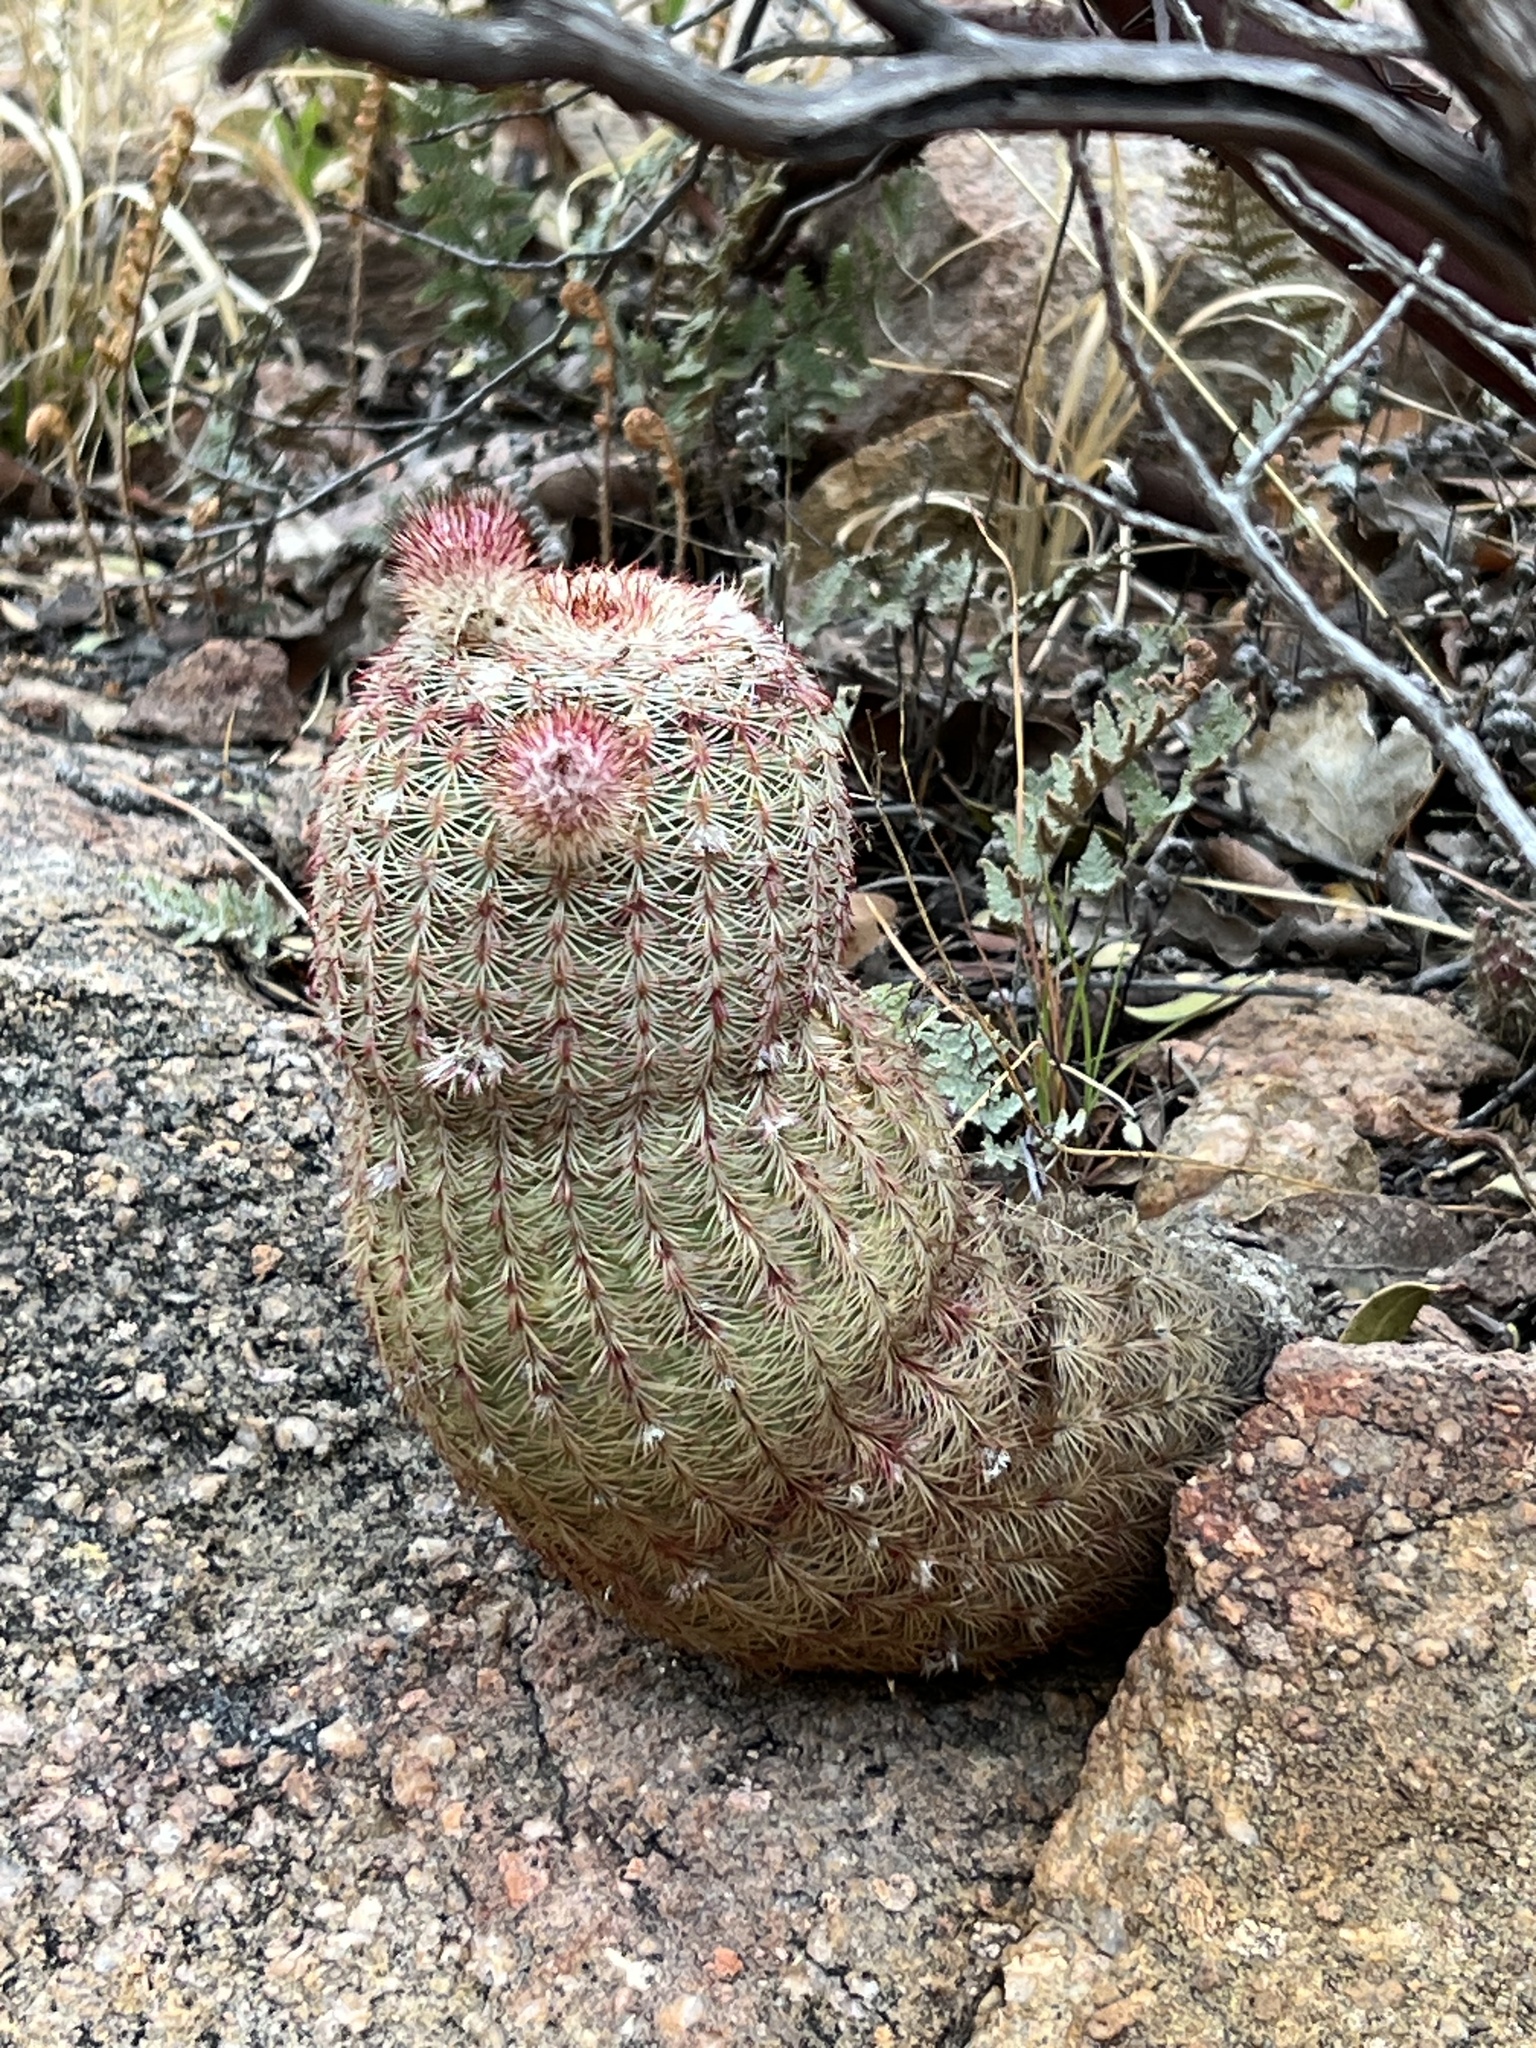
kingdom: Plantae
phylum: Tracheophyta
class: Magnoliopsida
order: Caryophyllales
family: Cactaceae
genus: Echinocereus
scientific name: Echinocereus rigidissimus
